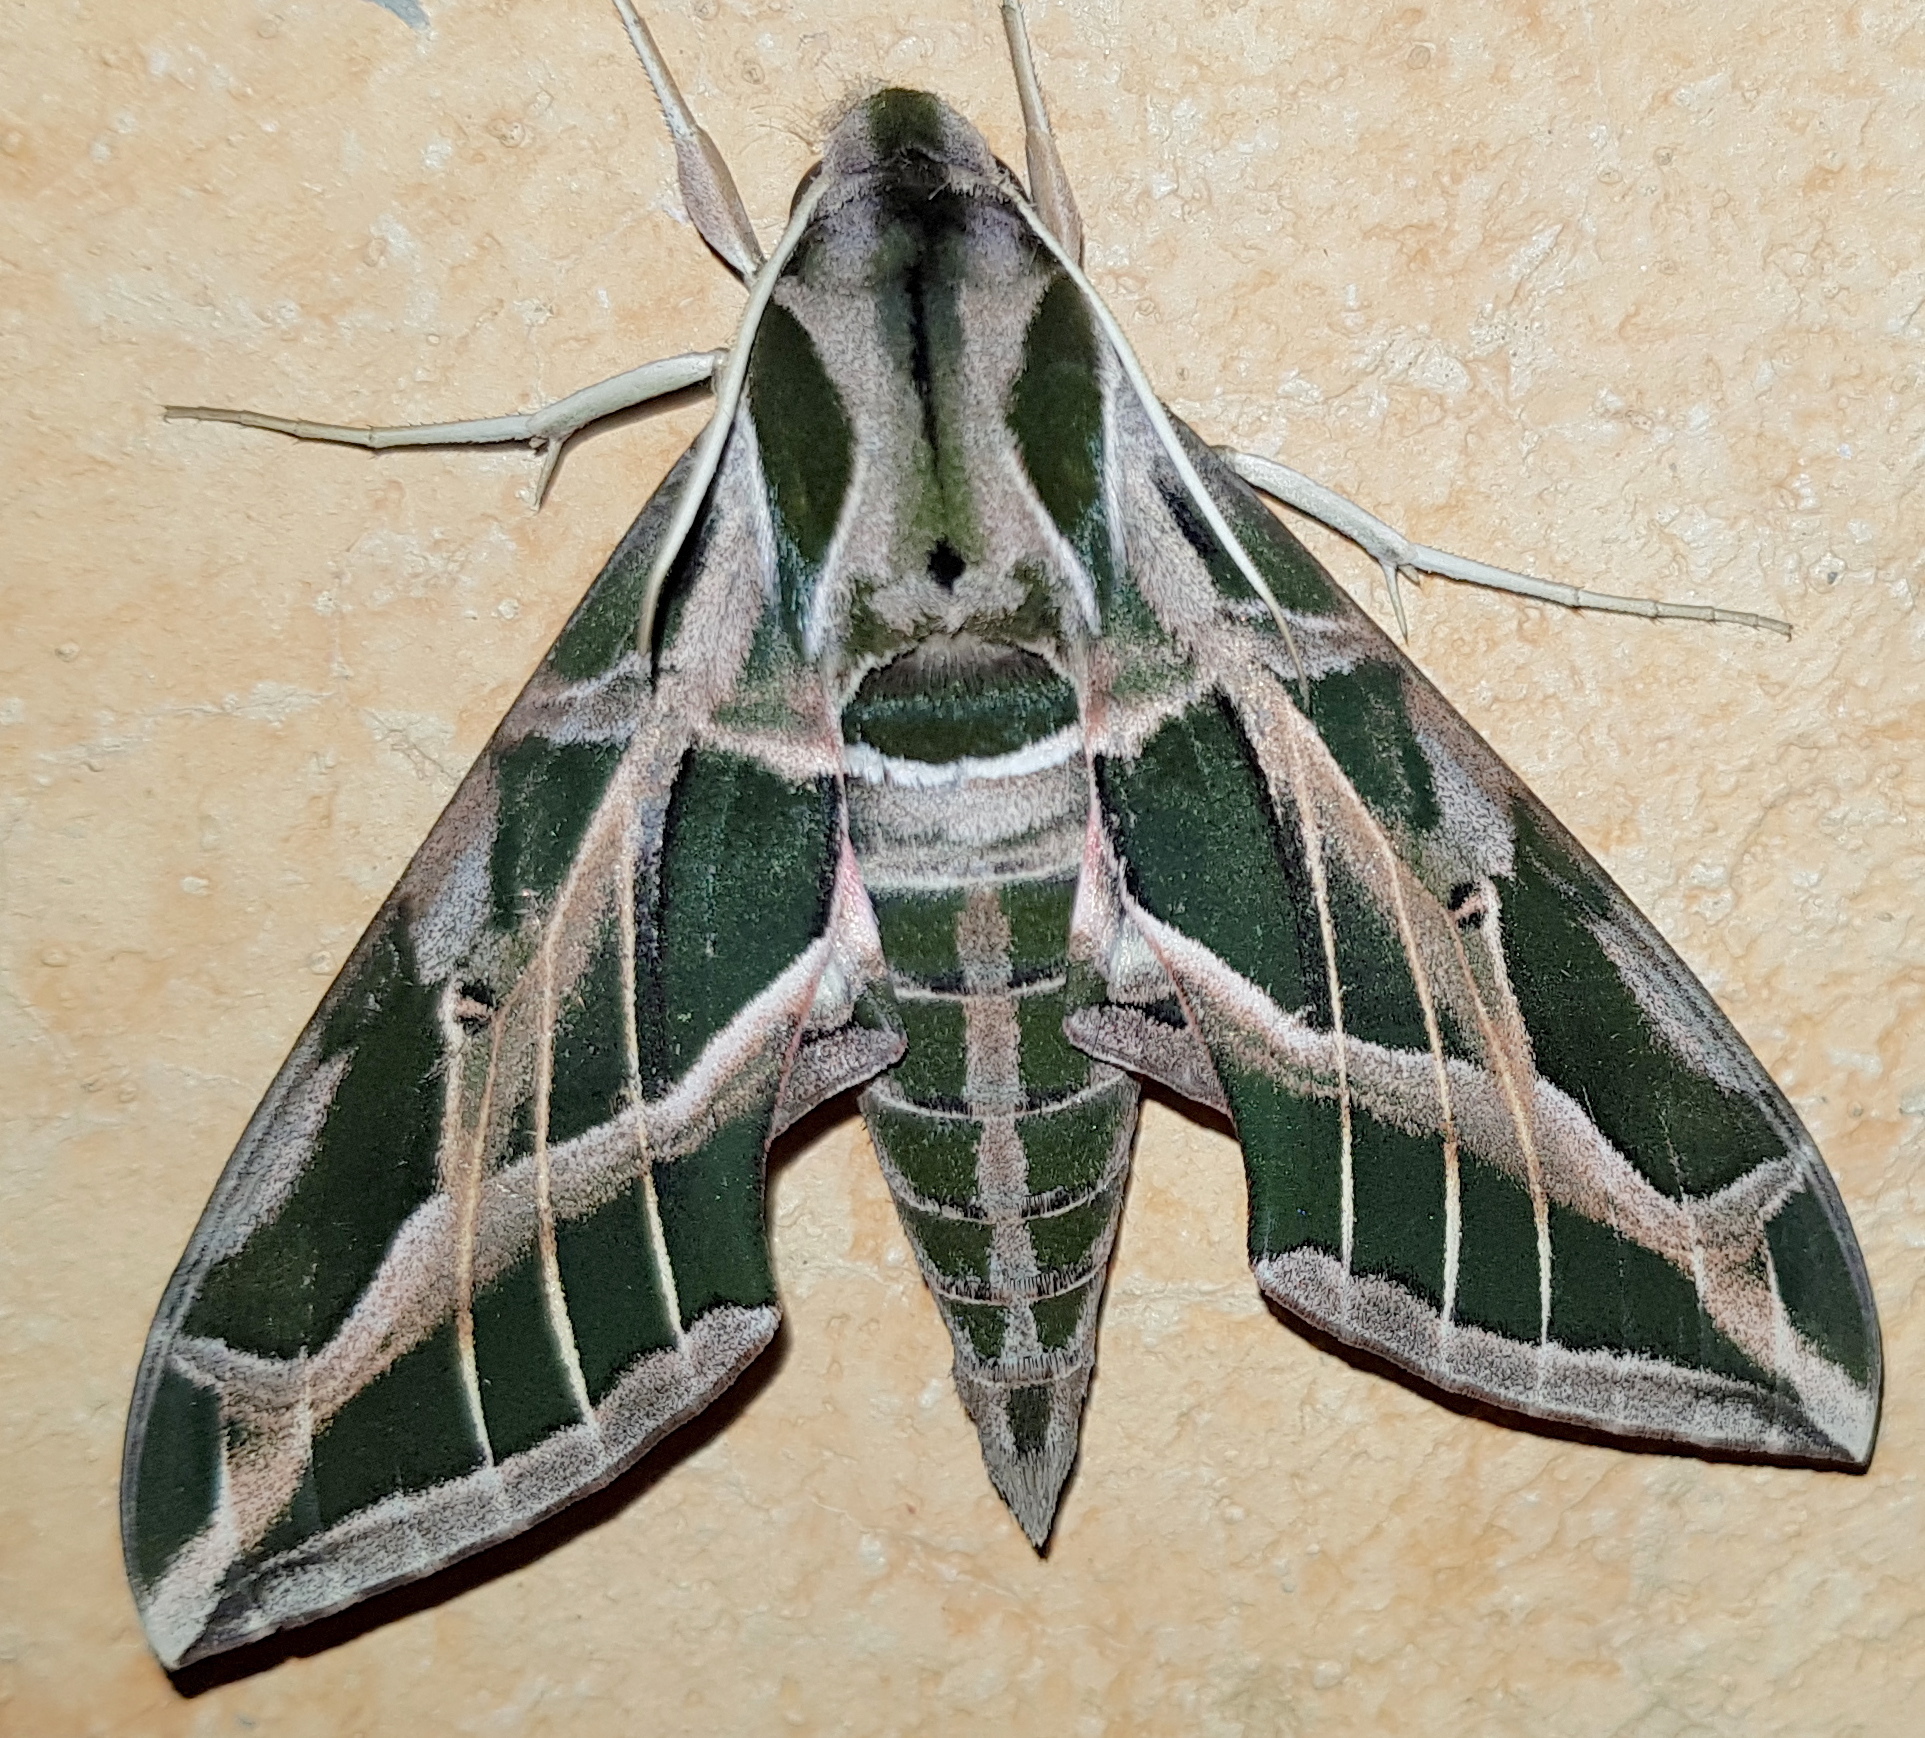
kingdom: Animalia
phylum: Arthropoda
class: Insecta
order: Lepidoptera
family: Sphingidae
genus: Eumorpha
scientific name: Eumorpha vitis
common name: Vine sphinx
